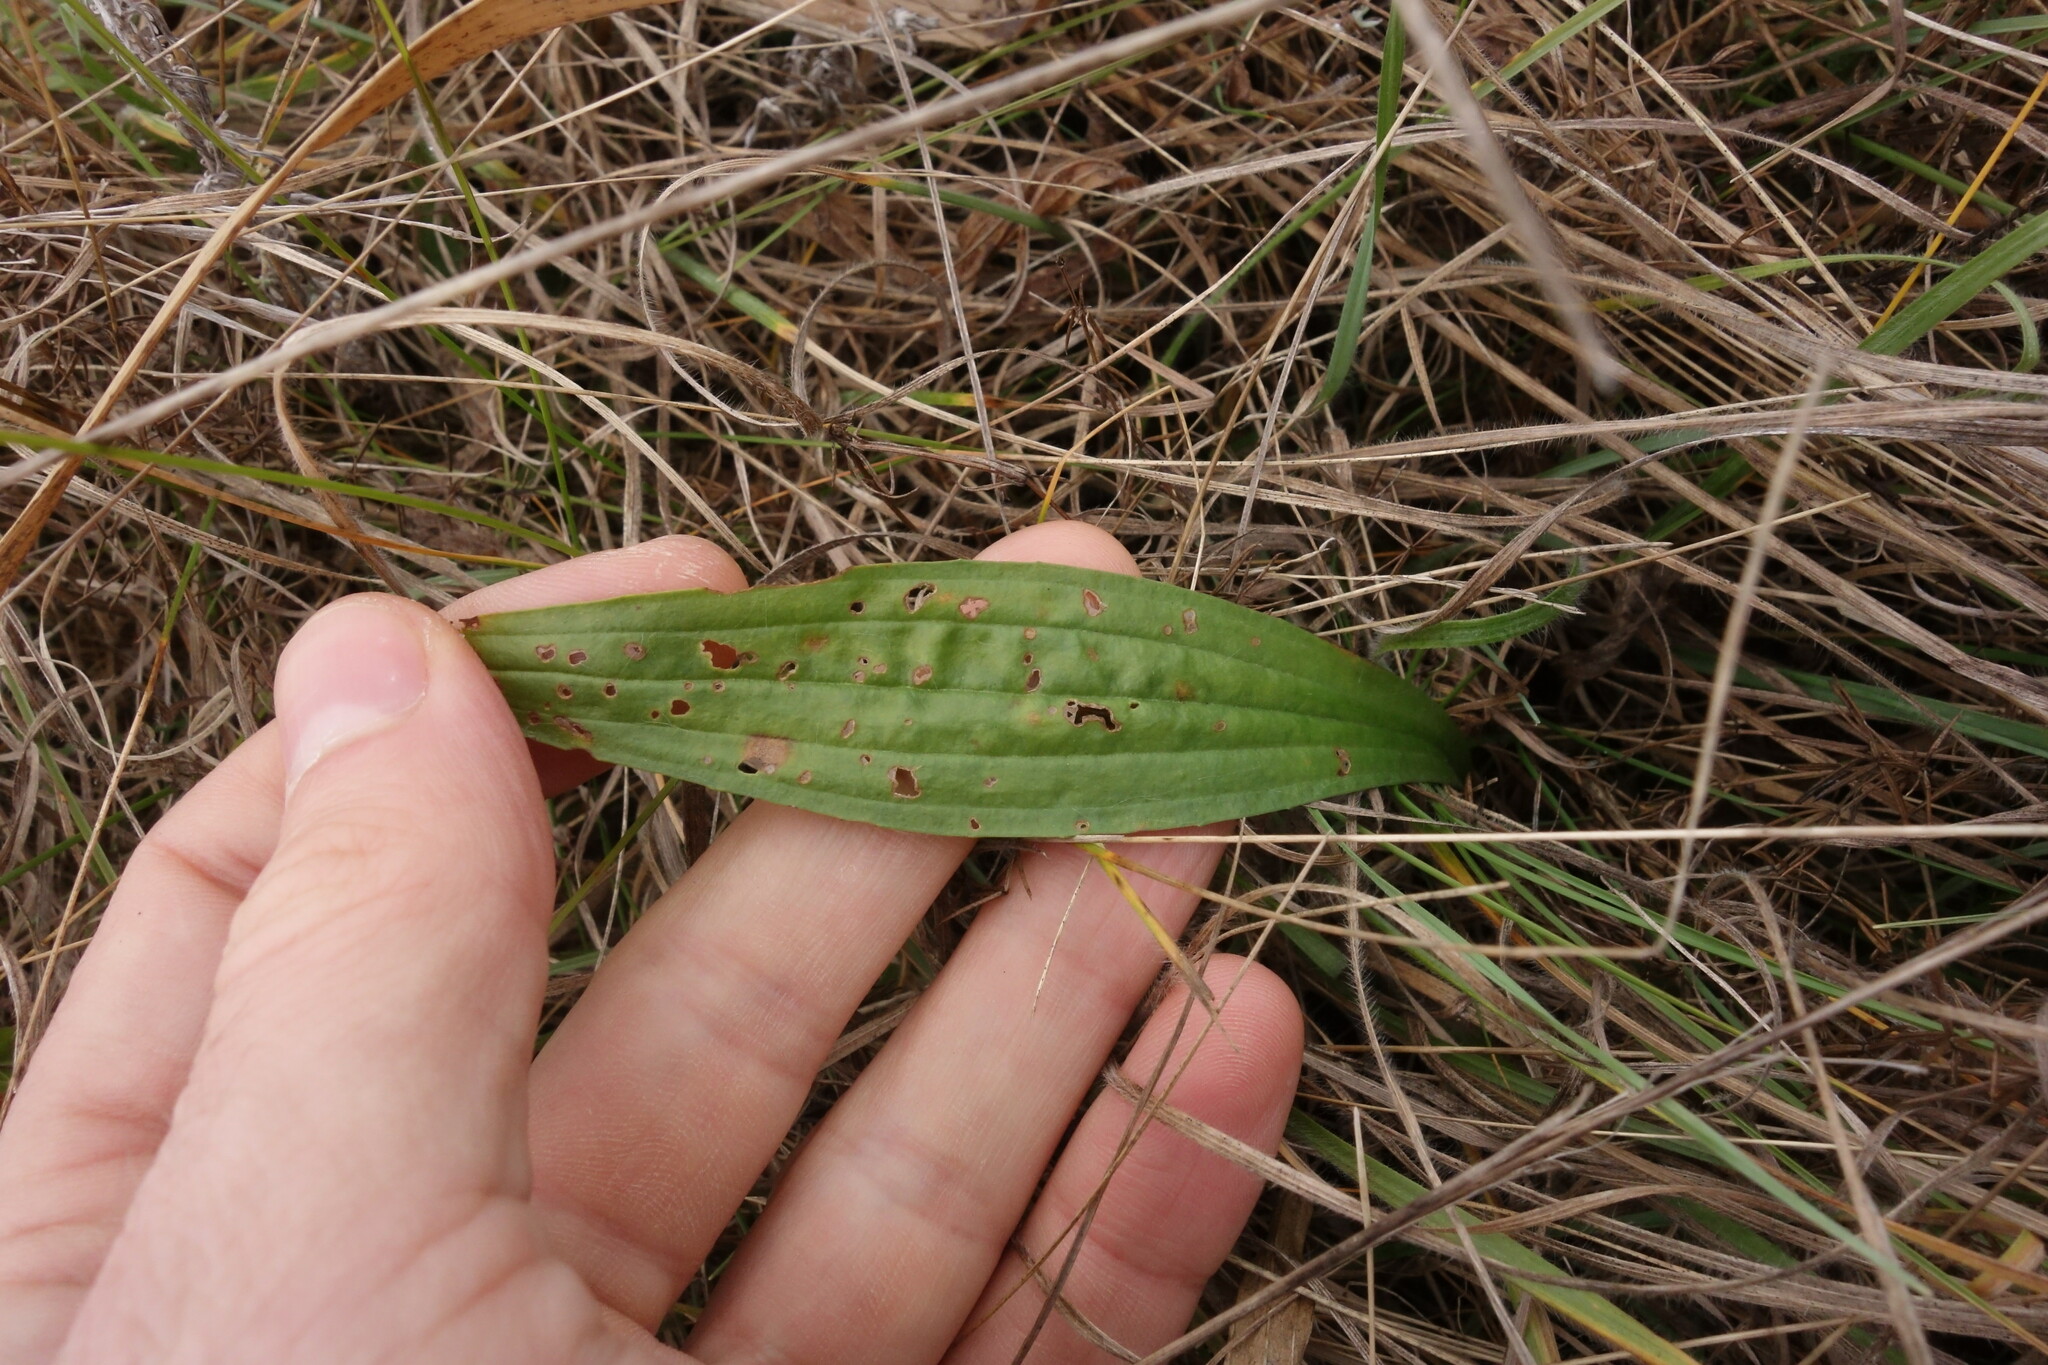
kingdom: Plantae
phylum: Tracheophyta
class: Magnoliopsida
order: Lamiales
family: Plantaginaceae
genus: Plantago
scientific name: Plantago lanceolata
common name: Ribwort plantain
